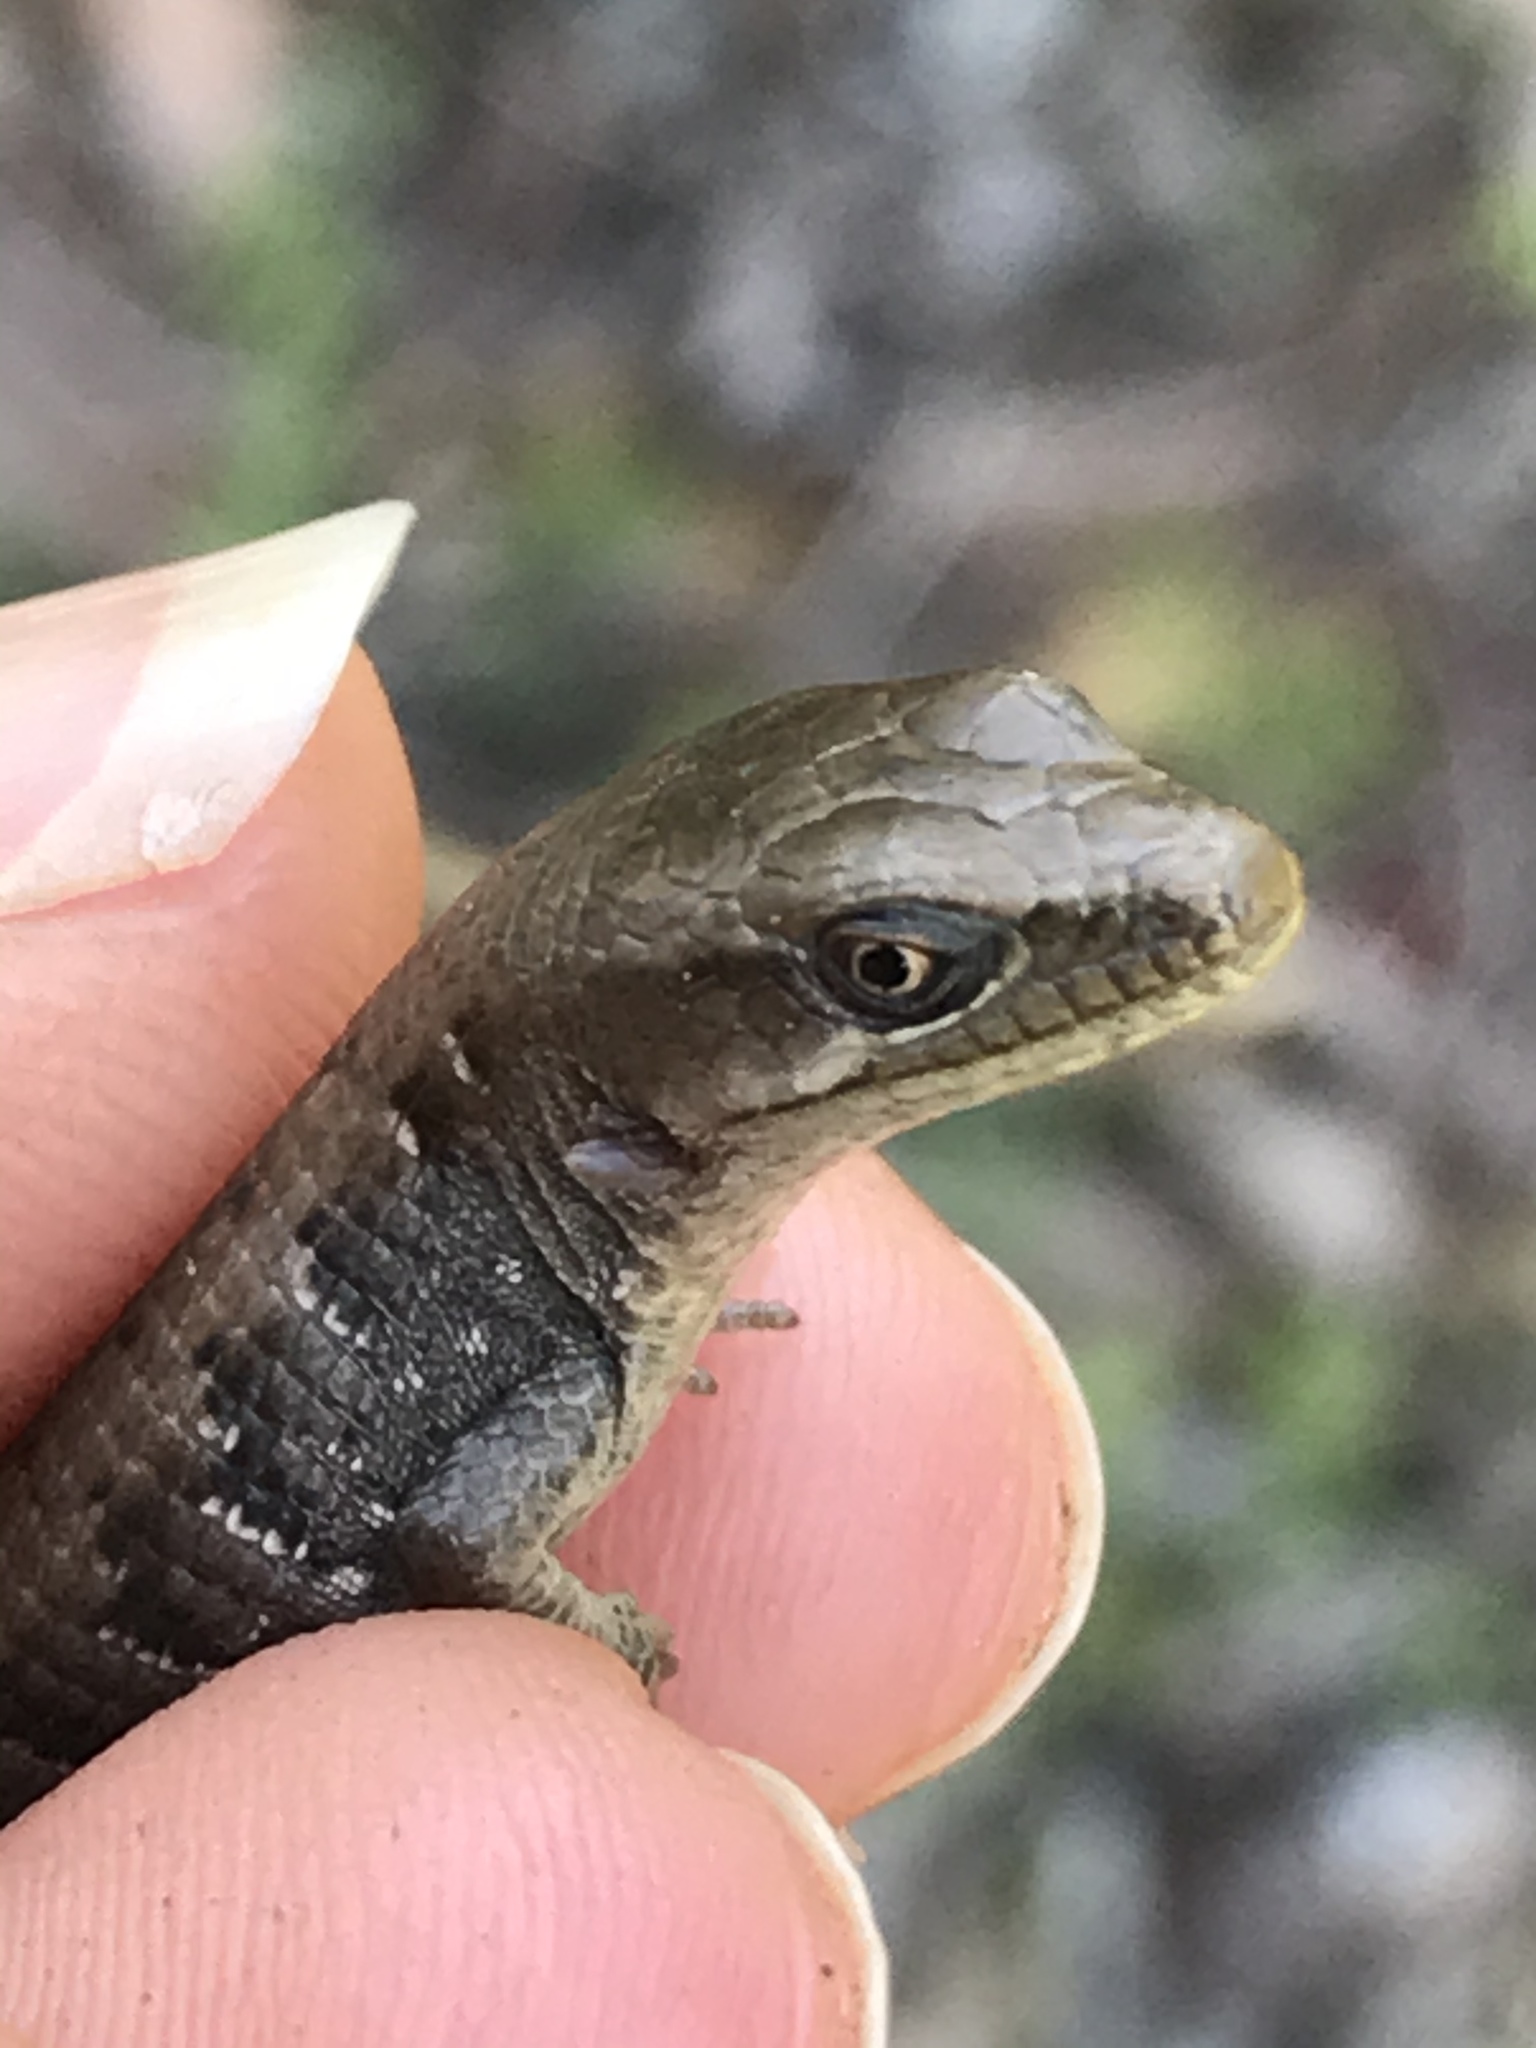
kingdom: Animalia
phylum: Chordata
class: Squamata
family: Anguidae
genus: Elgaria
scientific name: Elgaria multicarinata
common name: Southern alligator lizard
